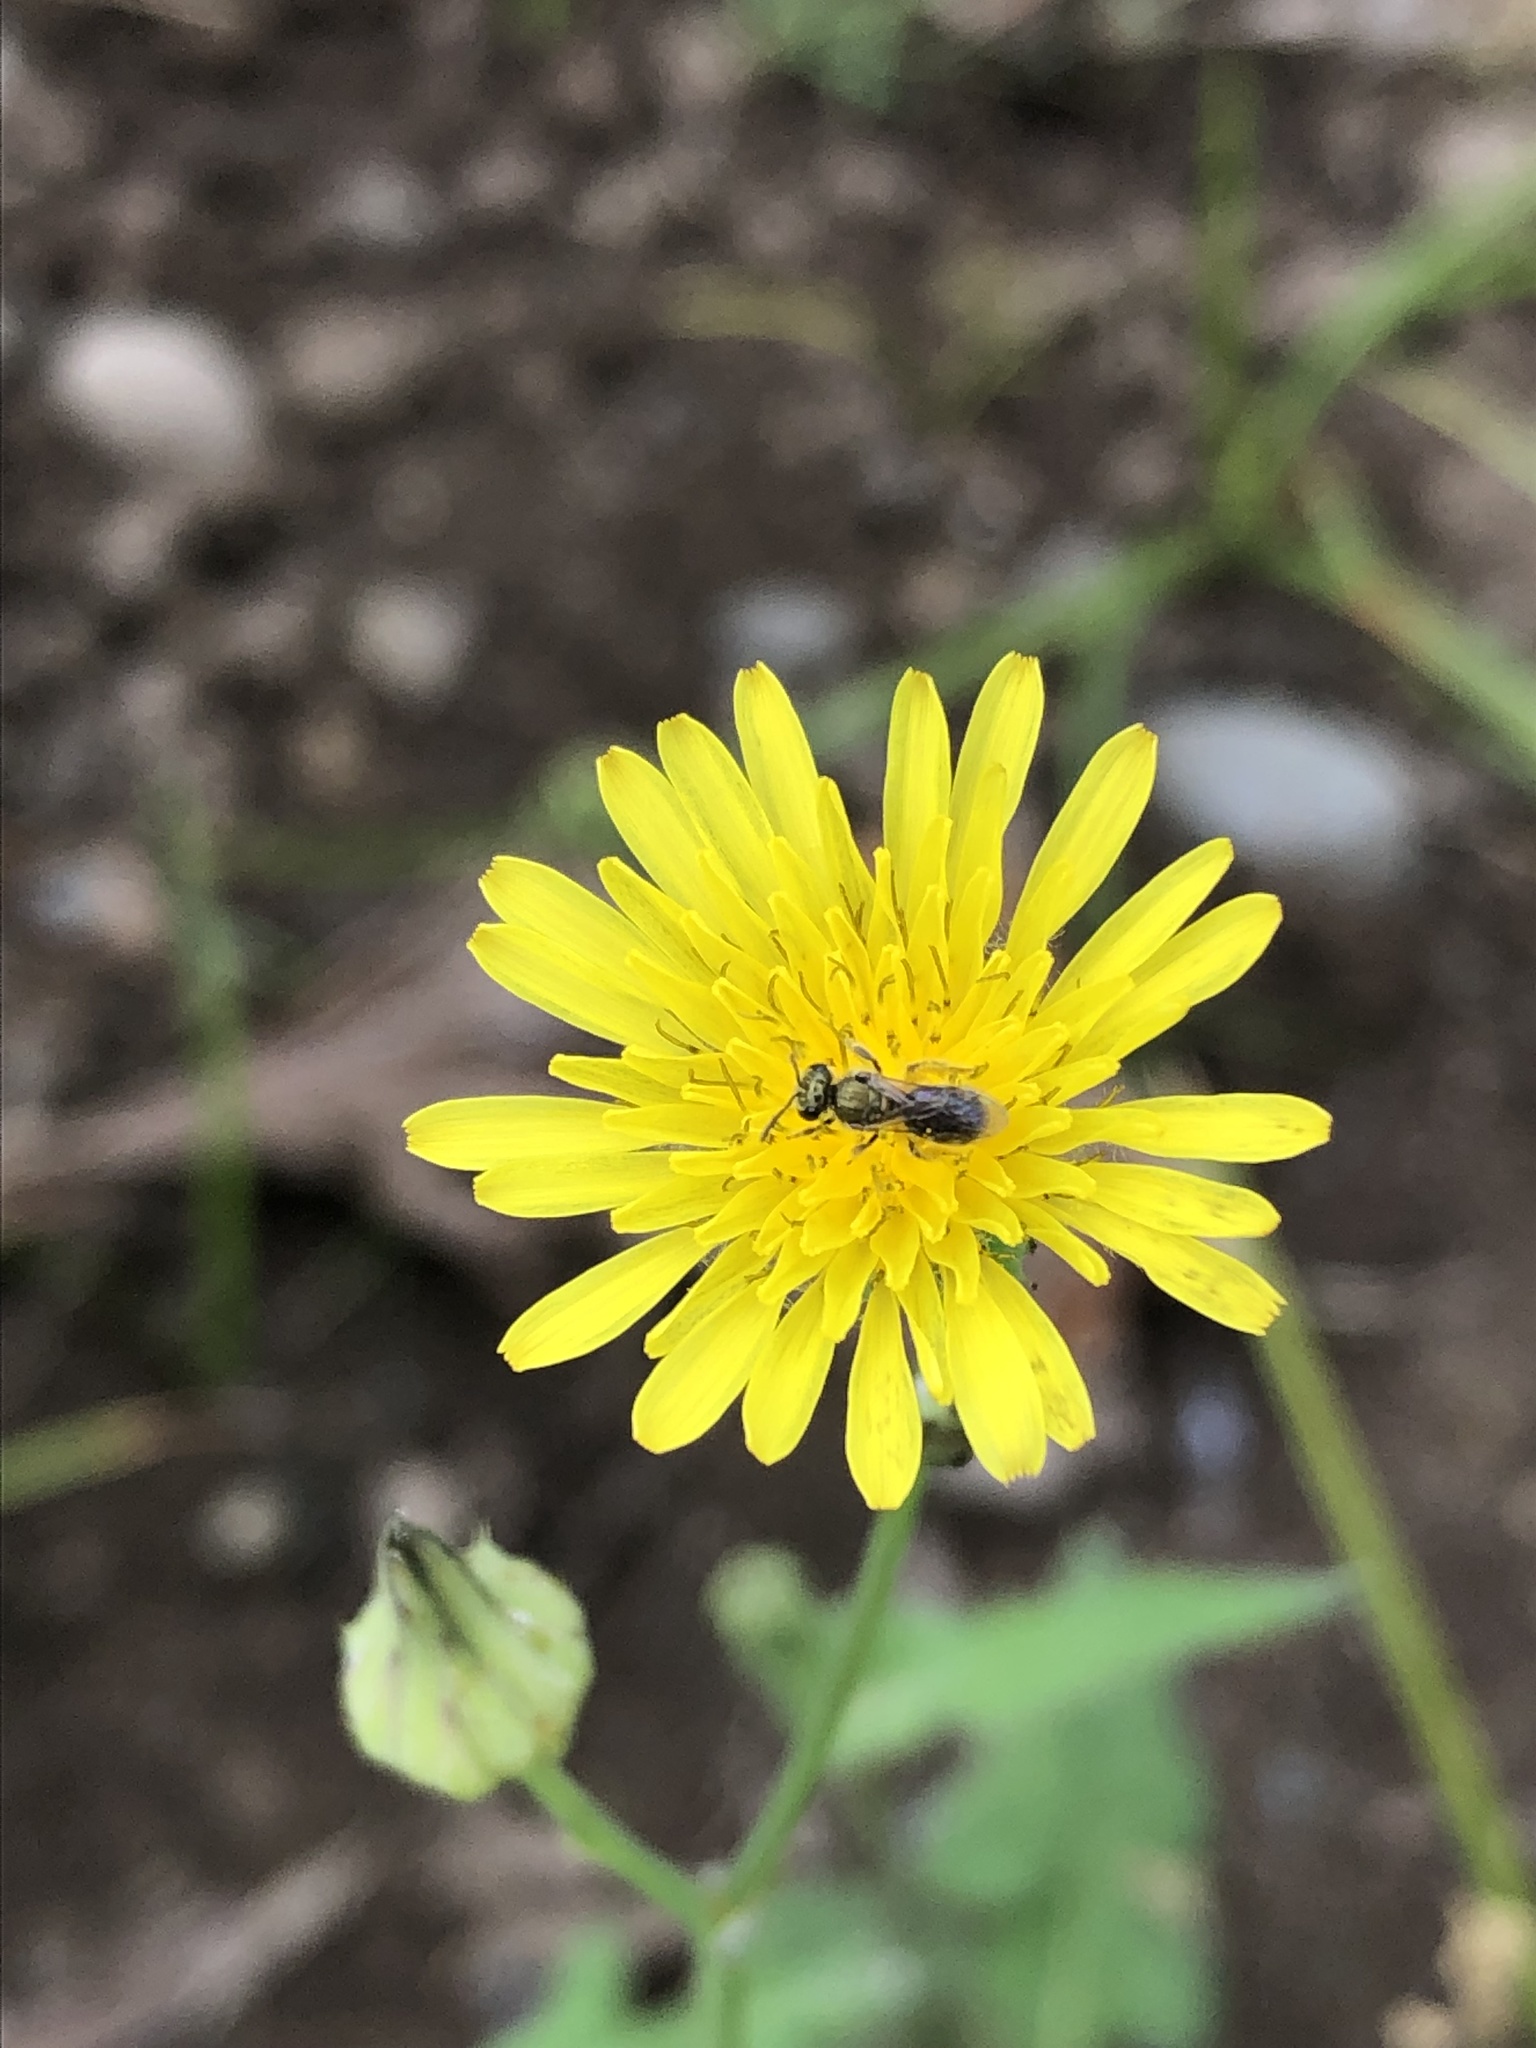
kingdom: Animalia
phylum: Arthropoda
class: Insecta
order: Hymenoptera
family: Halictidae
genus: Dialictus
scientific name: Dialictus
